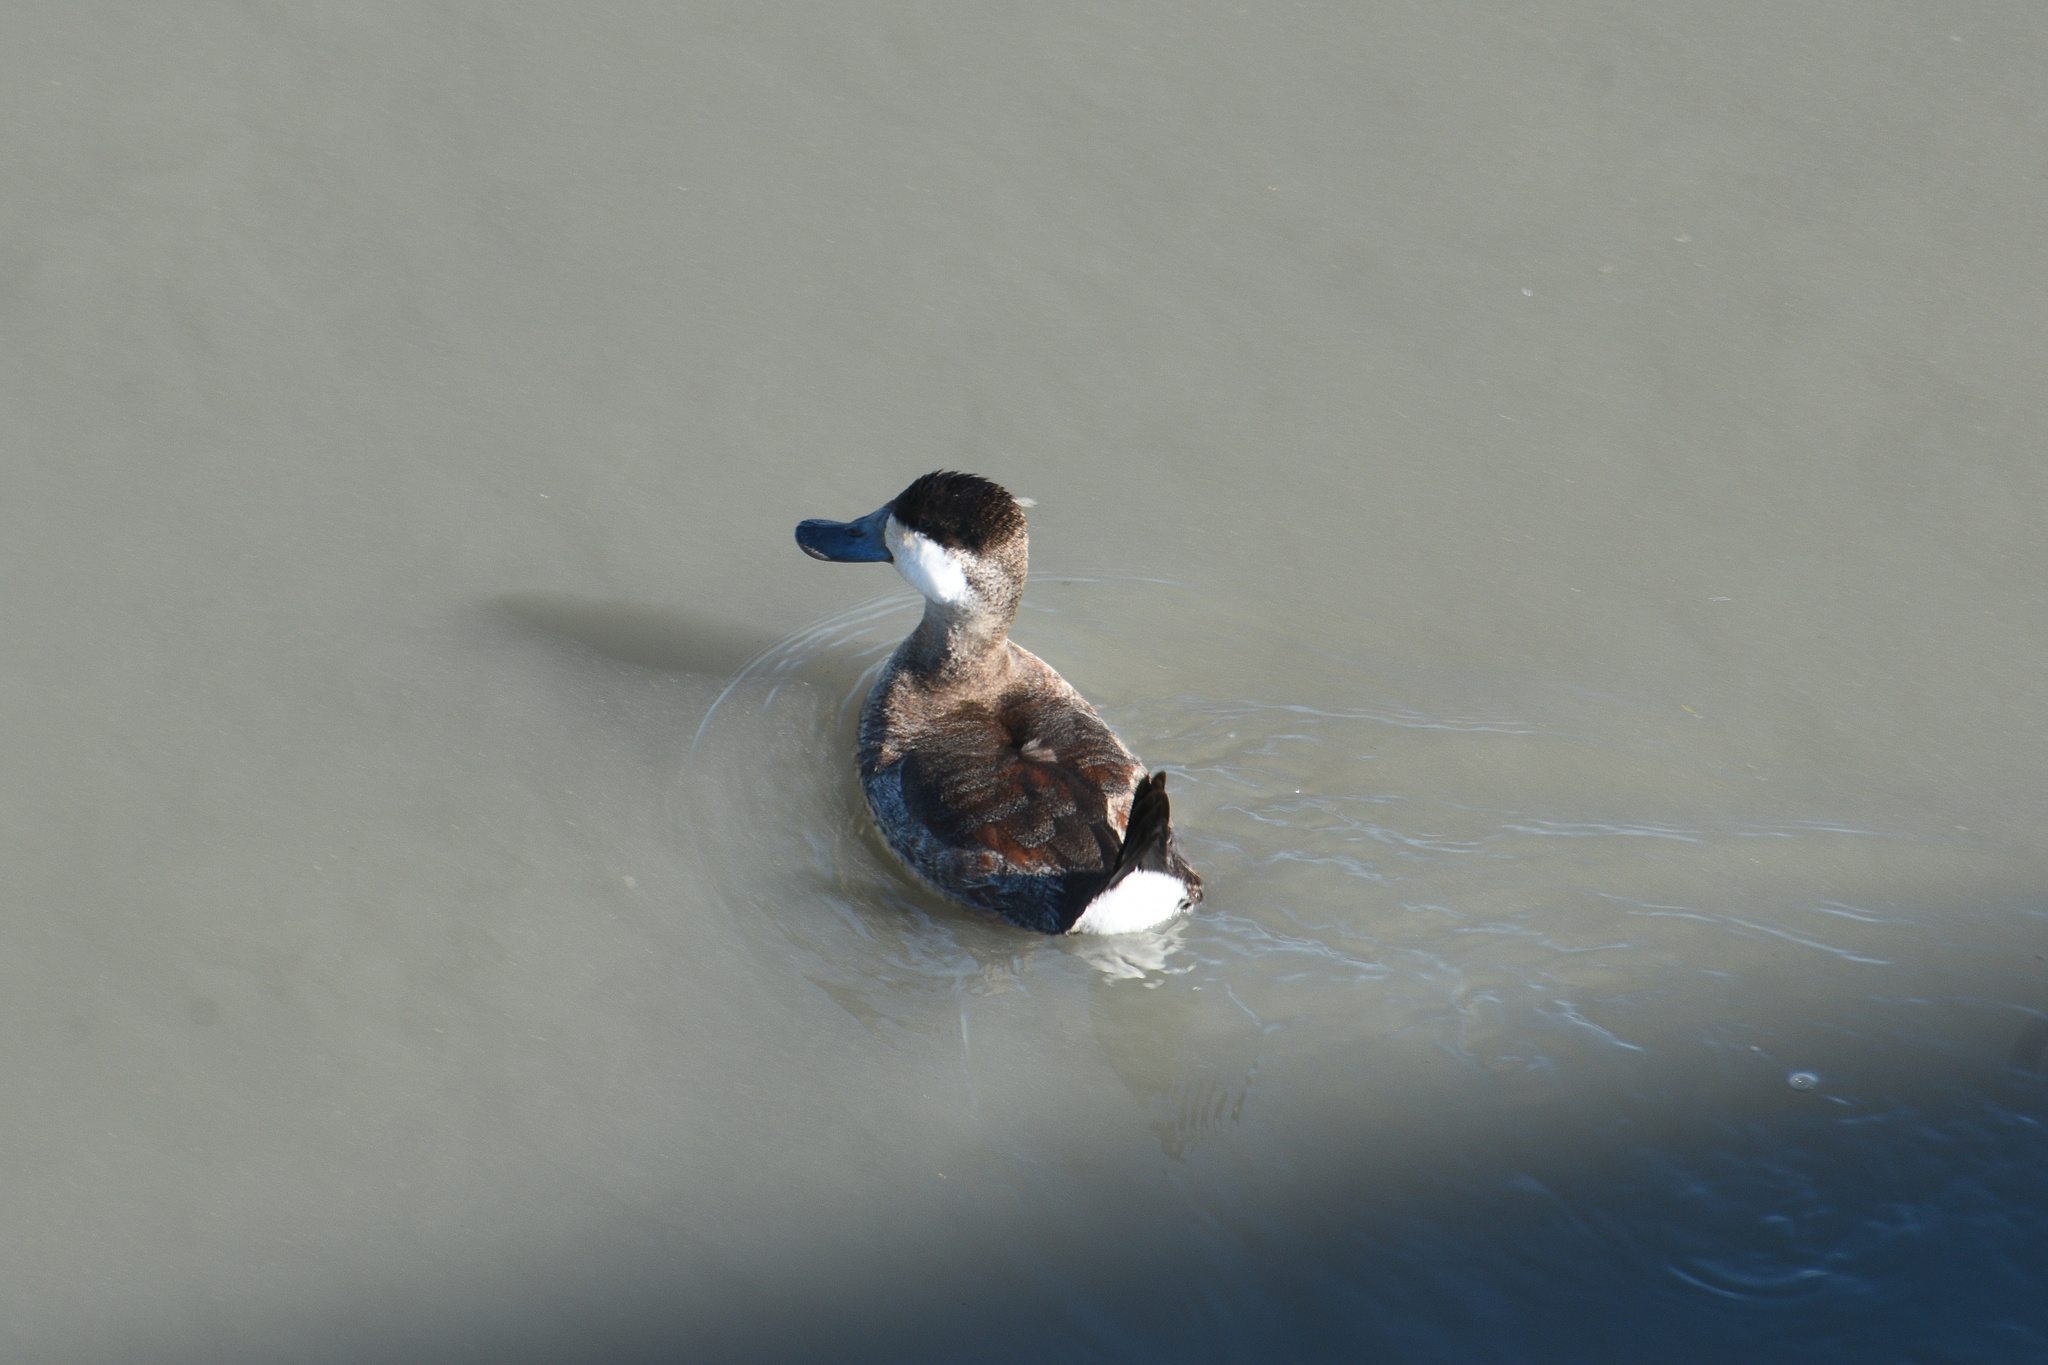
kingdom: Animalia
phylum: Chordata
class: Aves
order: Anseriformes
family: Anatidae
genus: Oxyura
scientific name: Oxyura jamaicensis
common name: Ruddy duck
